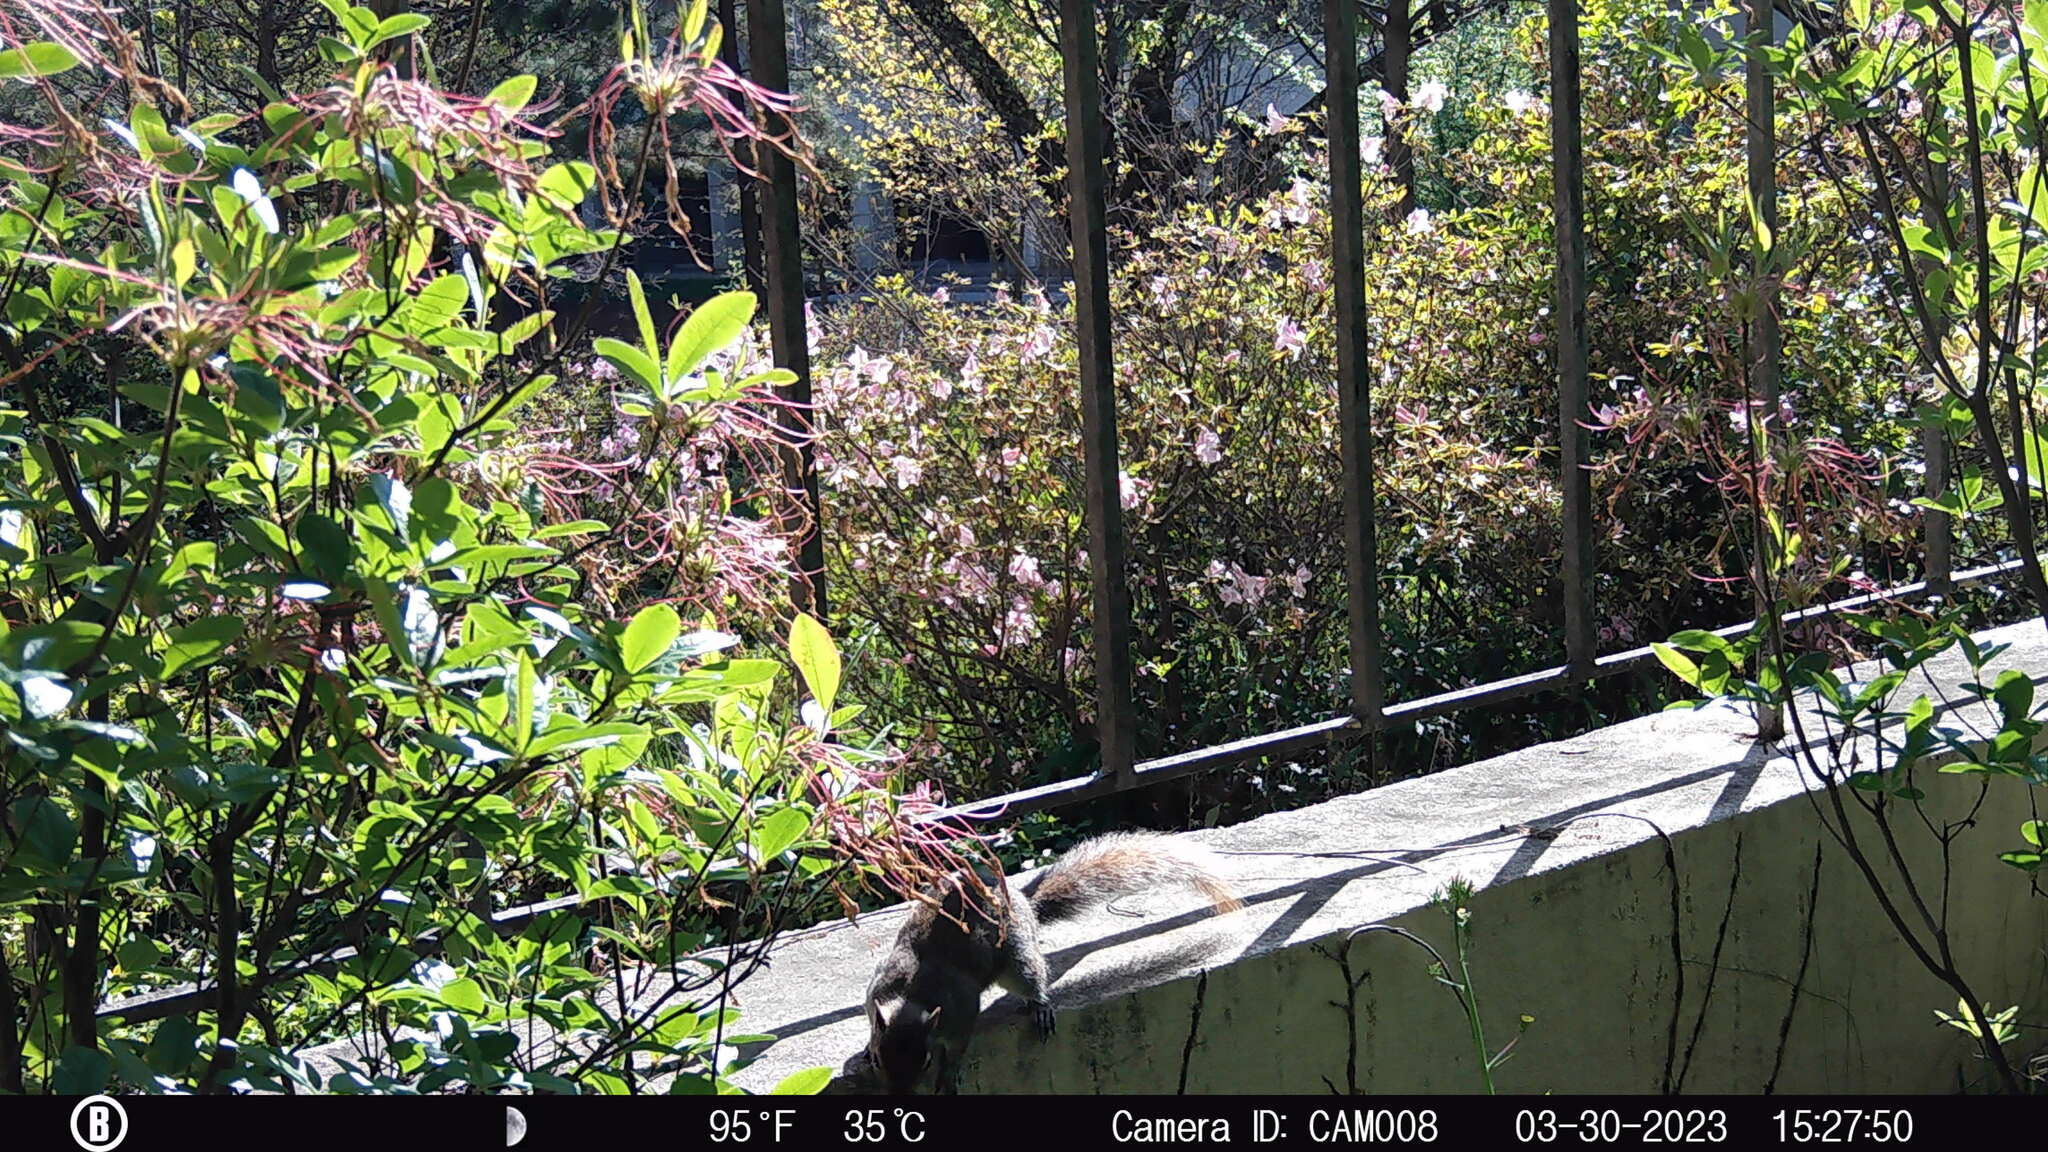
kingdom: Animalia
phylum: Chordata
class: Mammalia
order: Rodentia
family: Sciuridae
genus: Sciurus
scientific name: Sciurus carolinensis
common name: Eastern gray squirrel
